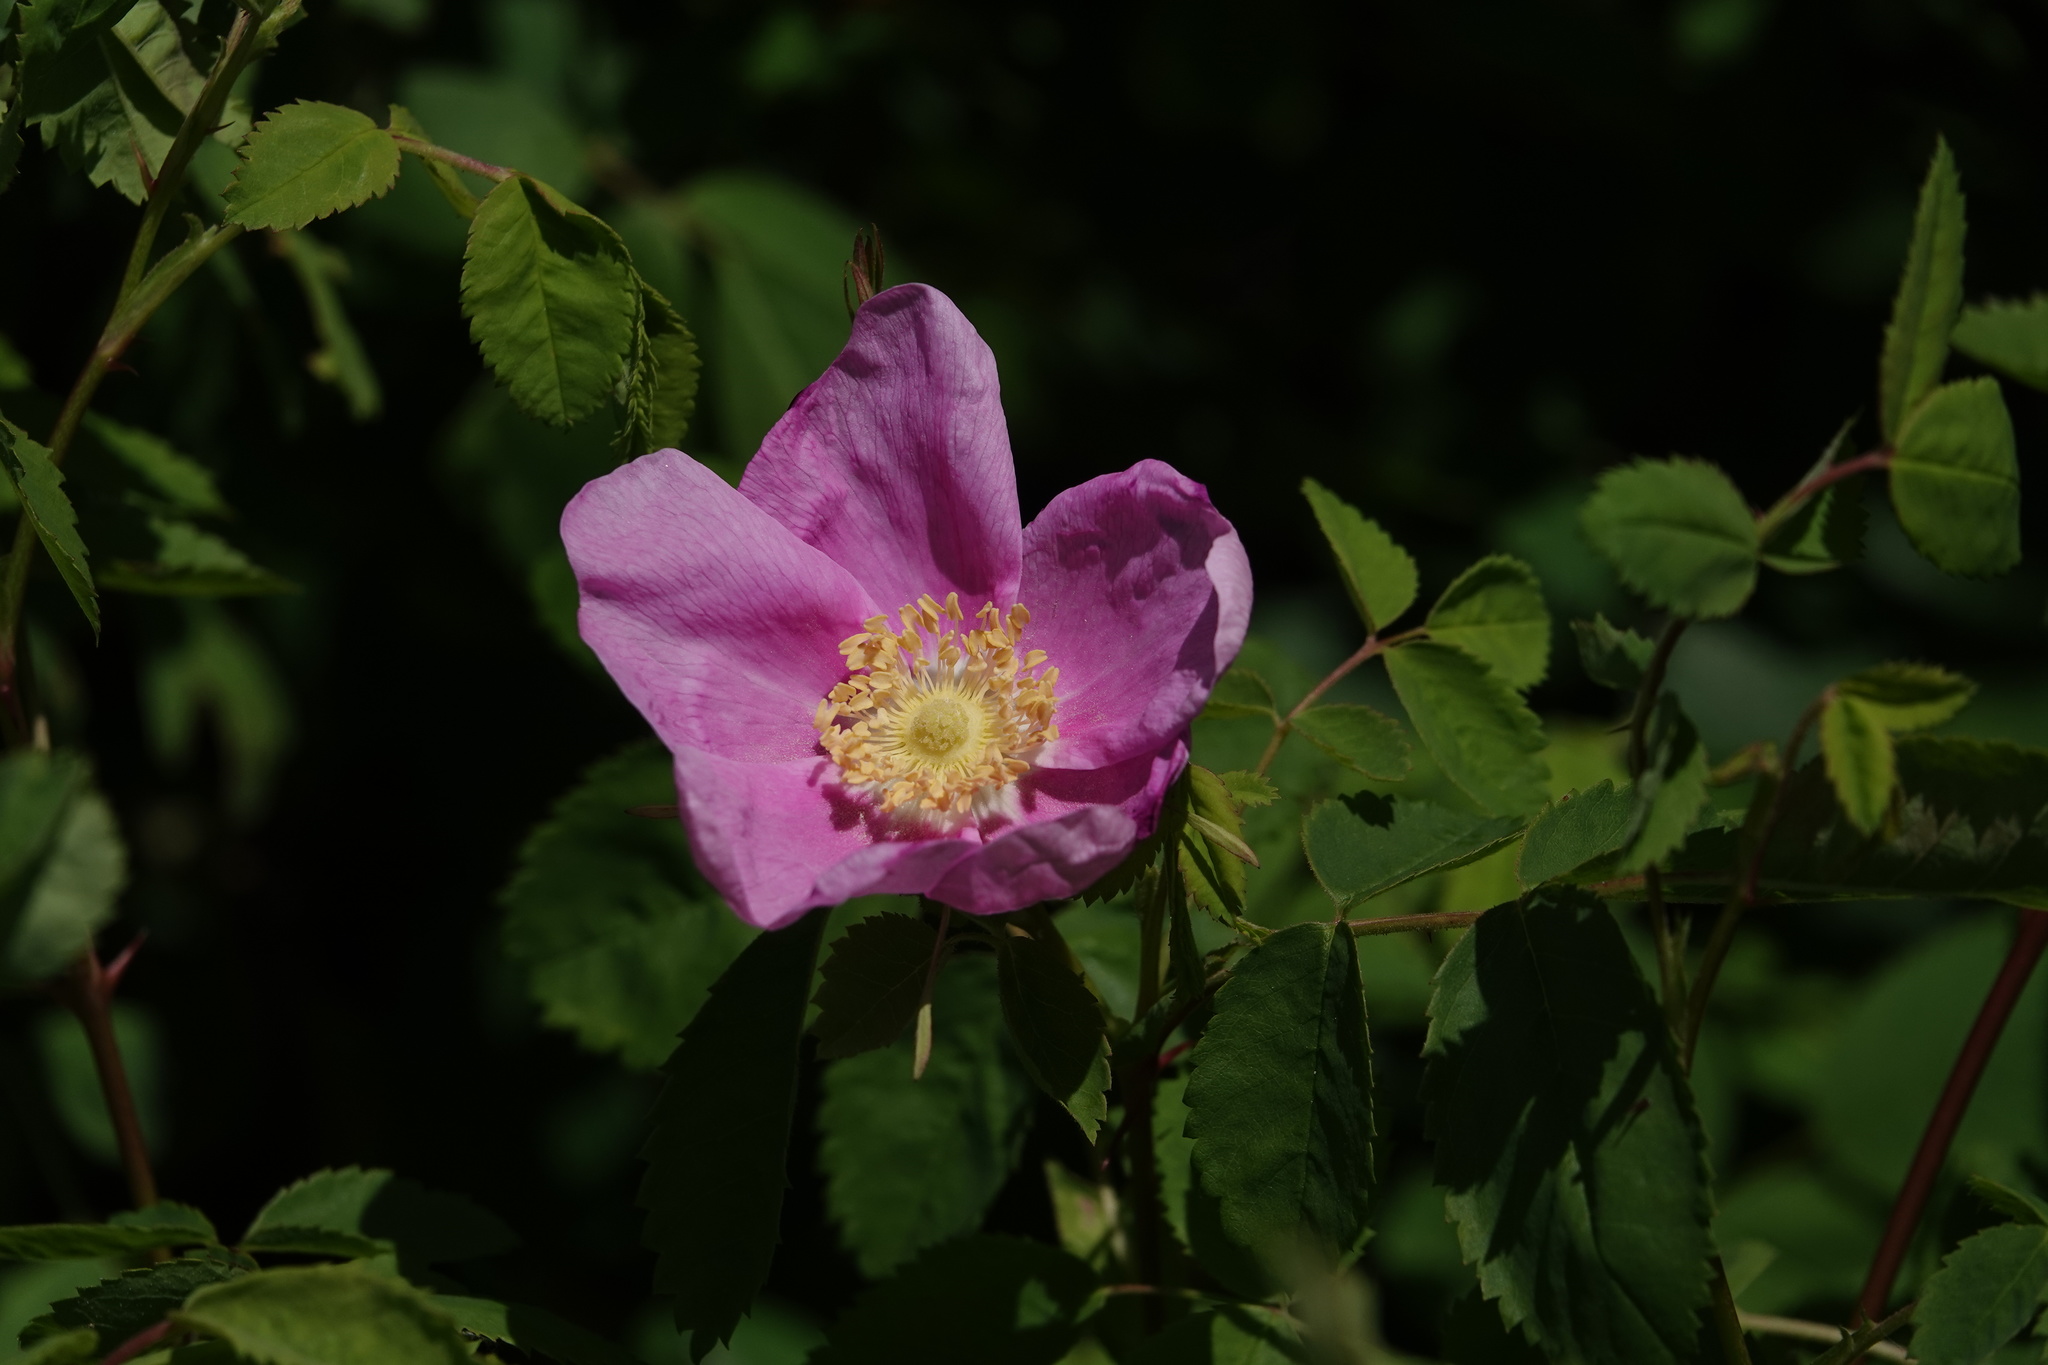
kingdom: Plantae
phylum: Tracheophyta
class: Magnoliopsida
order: Rosales
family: Rosaceae
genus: Rosa
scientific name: Rosa nutkana
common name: Nootka rose
